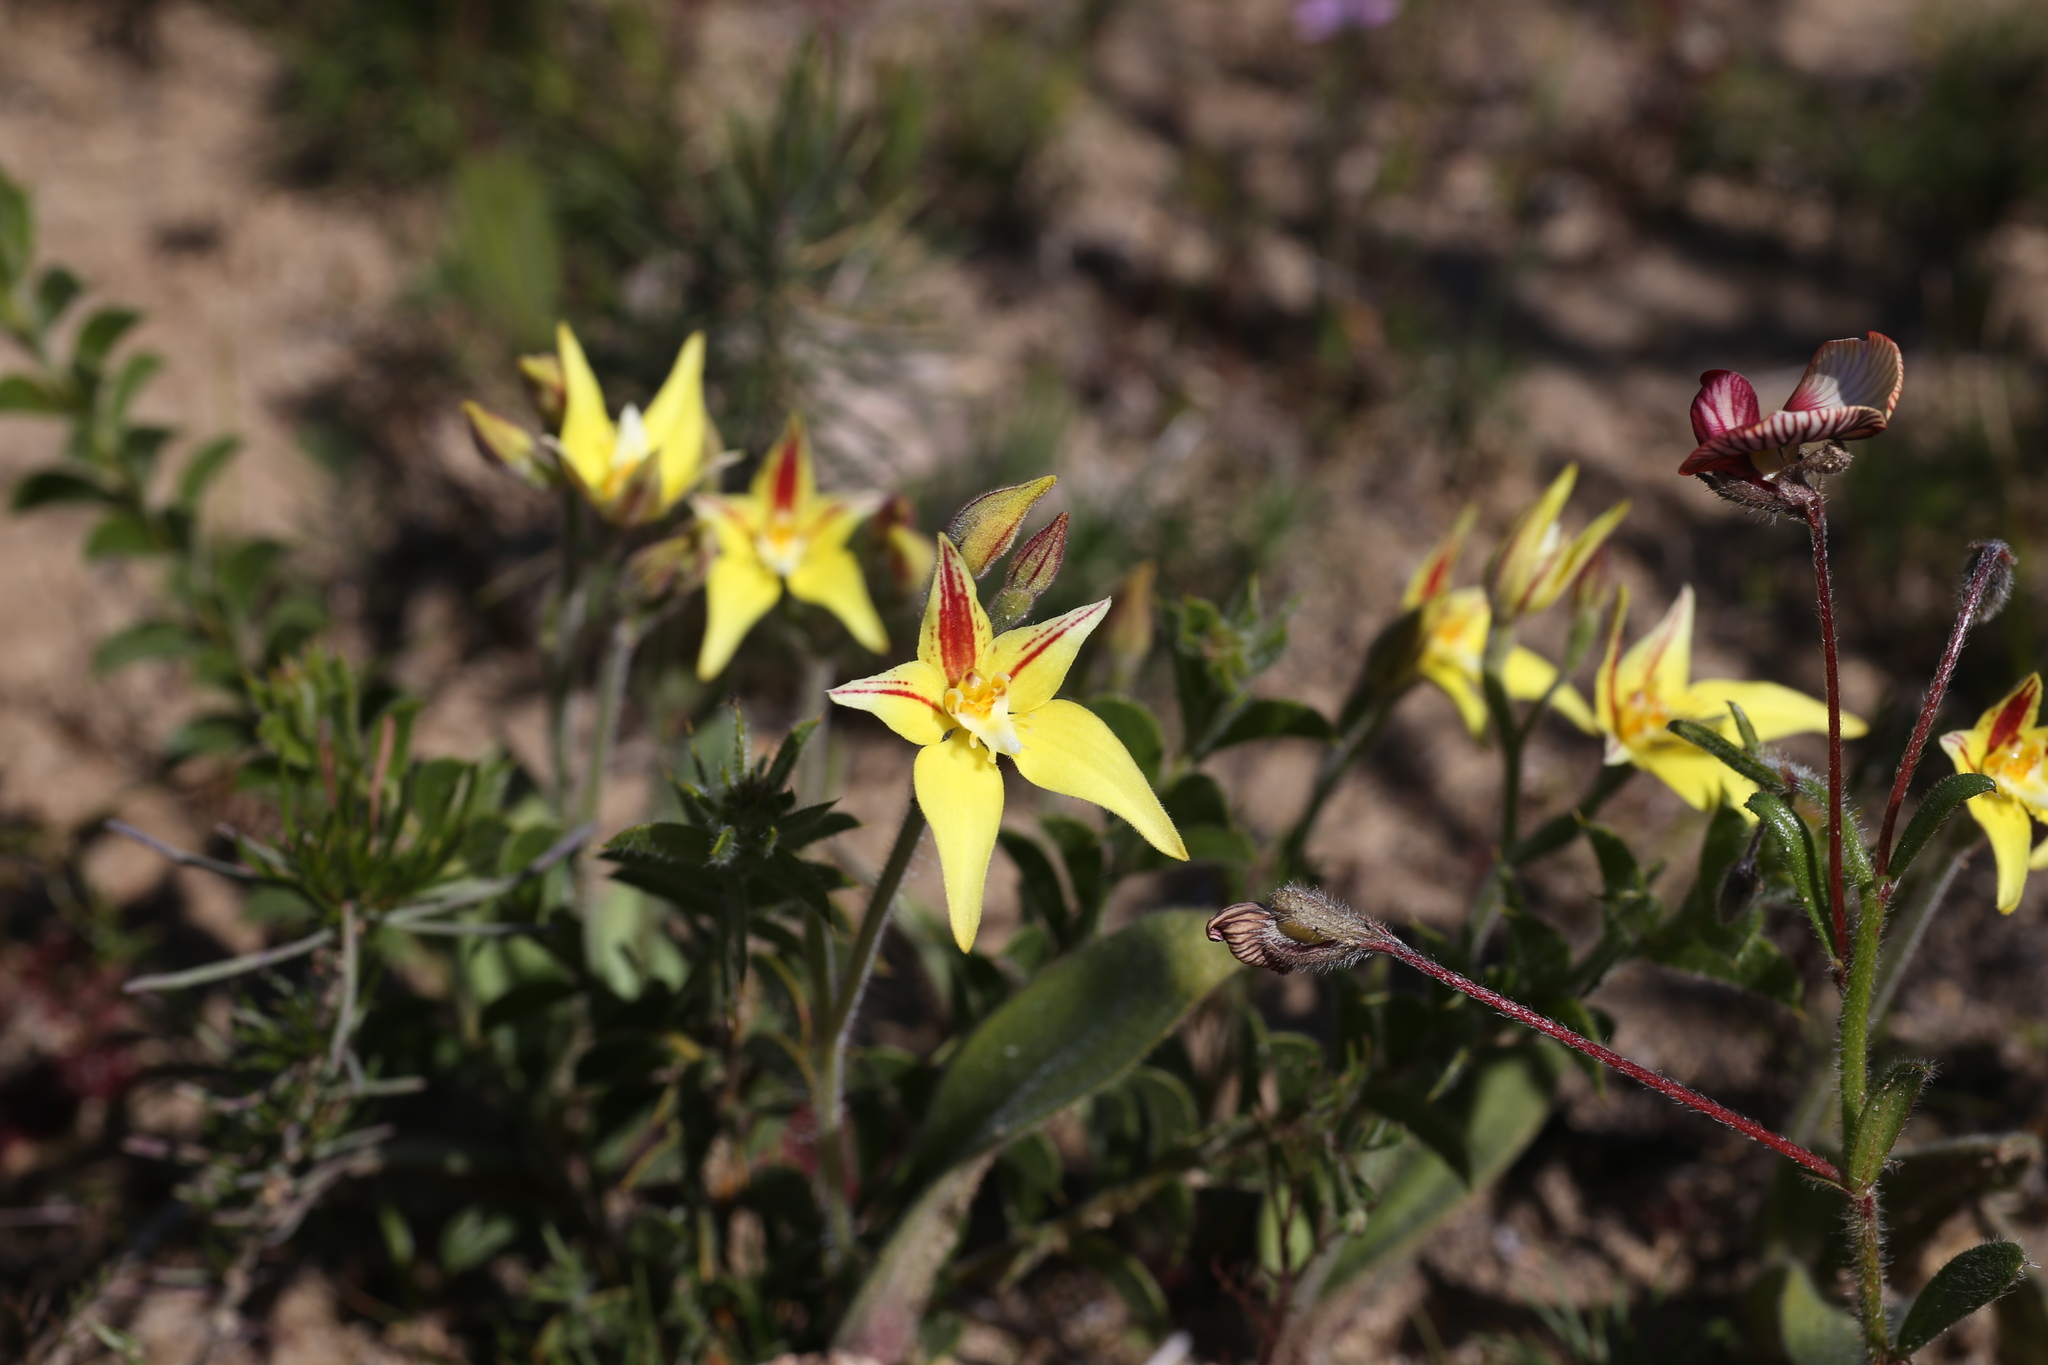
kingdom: Plantae
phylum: Tracheophyta
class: Liliopsida
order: Asparagales
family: Orchidaceae
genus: Caladenia
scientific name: Caladenia flava
